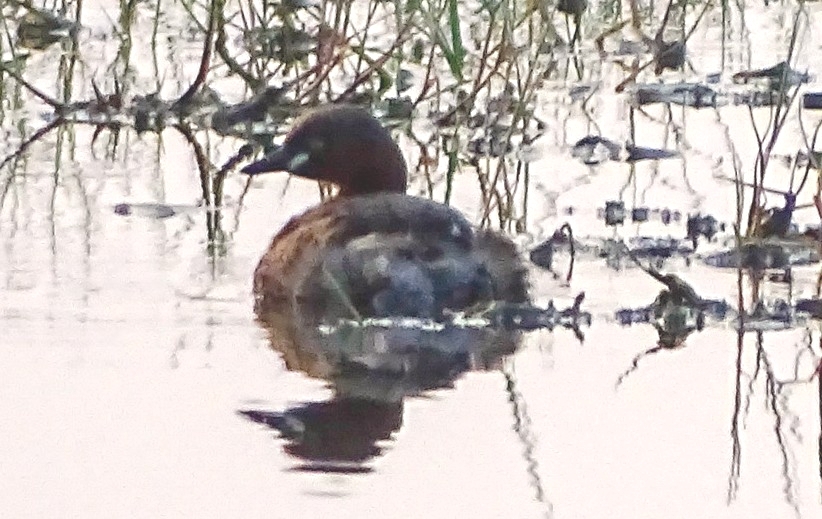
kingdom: Animalia
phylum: Chordata
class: Aves
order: Podicipediformes
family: Podicipedidae
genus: Tachybaptus
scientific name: Tachybaptus ruficollis
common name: Little grebe
